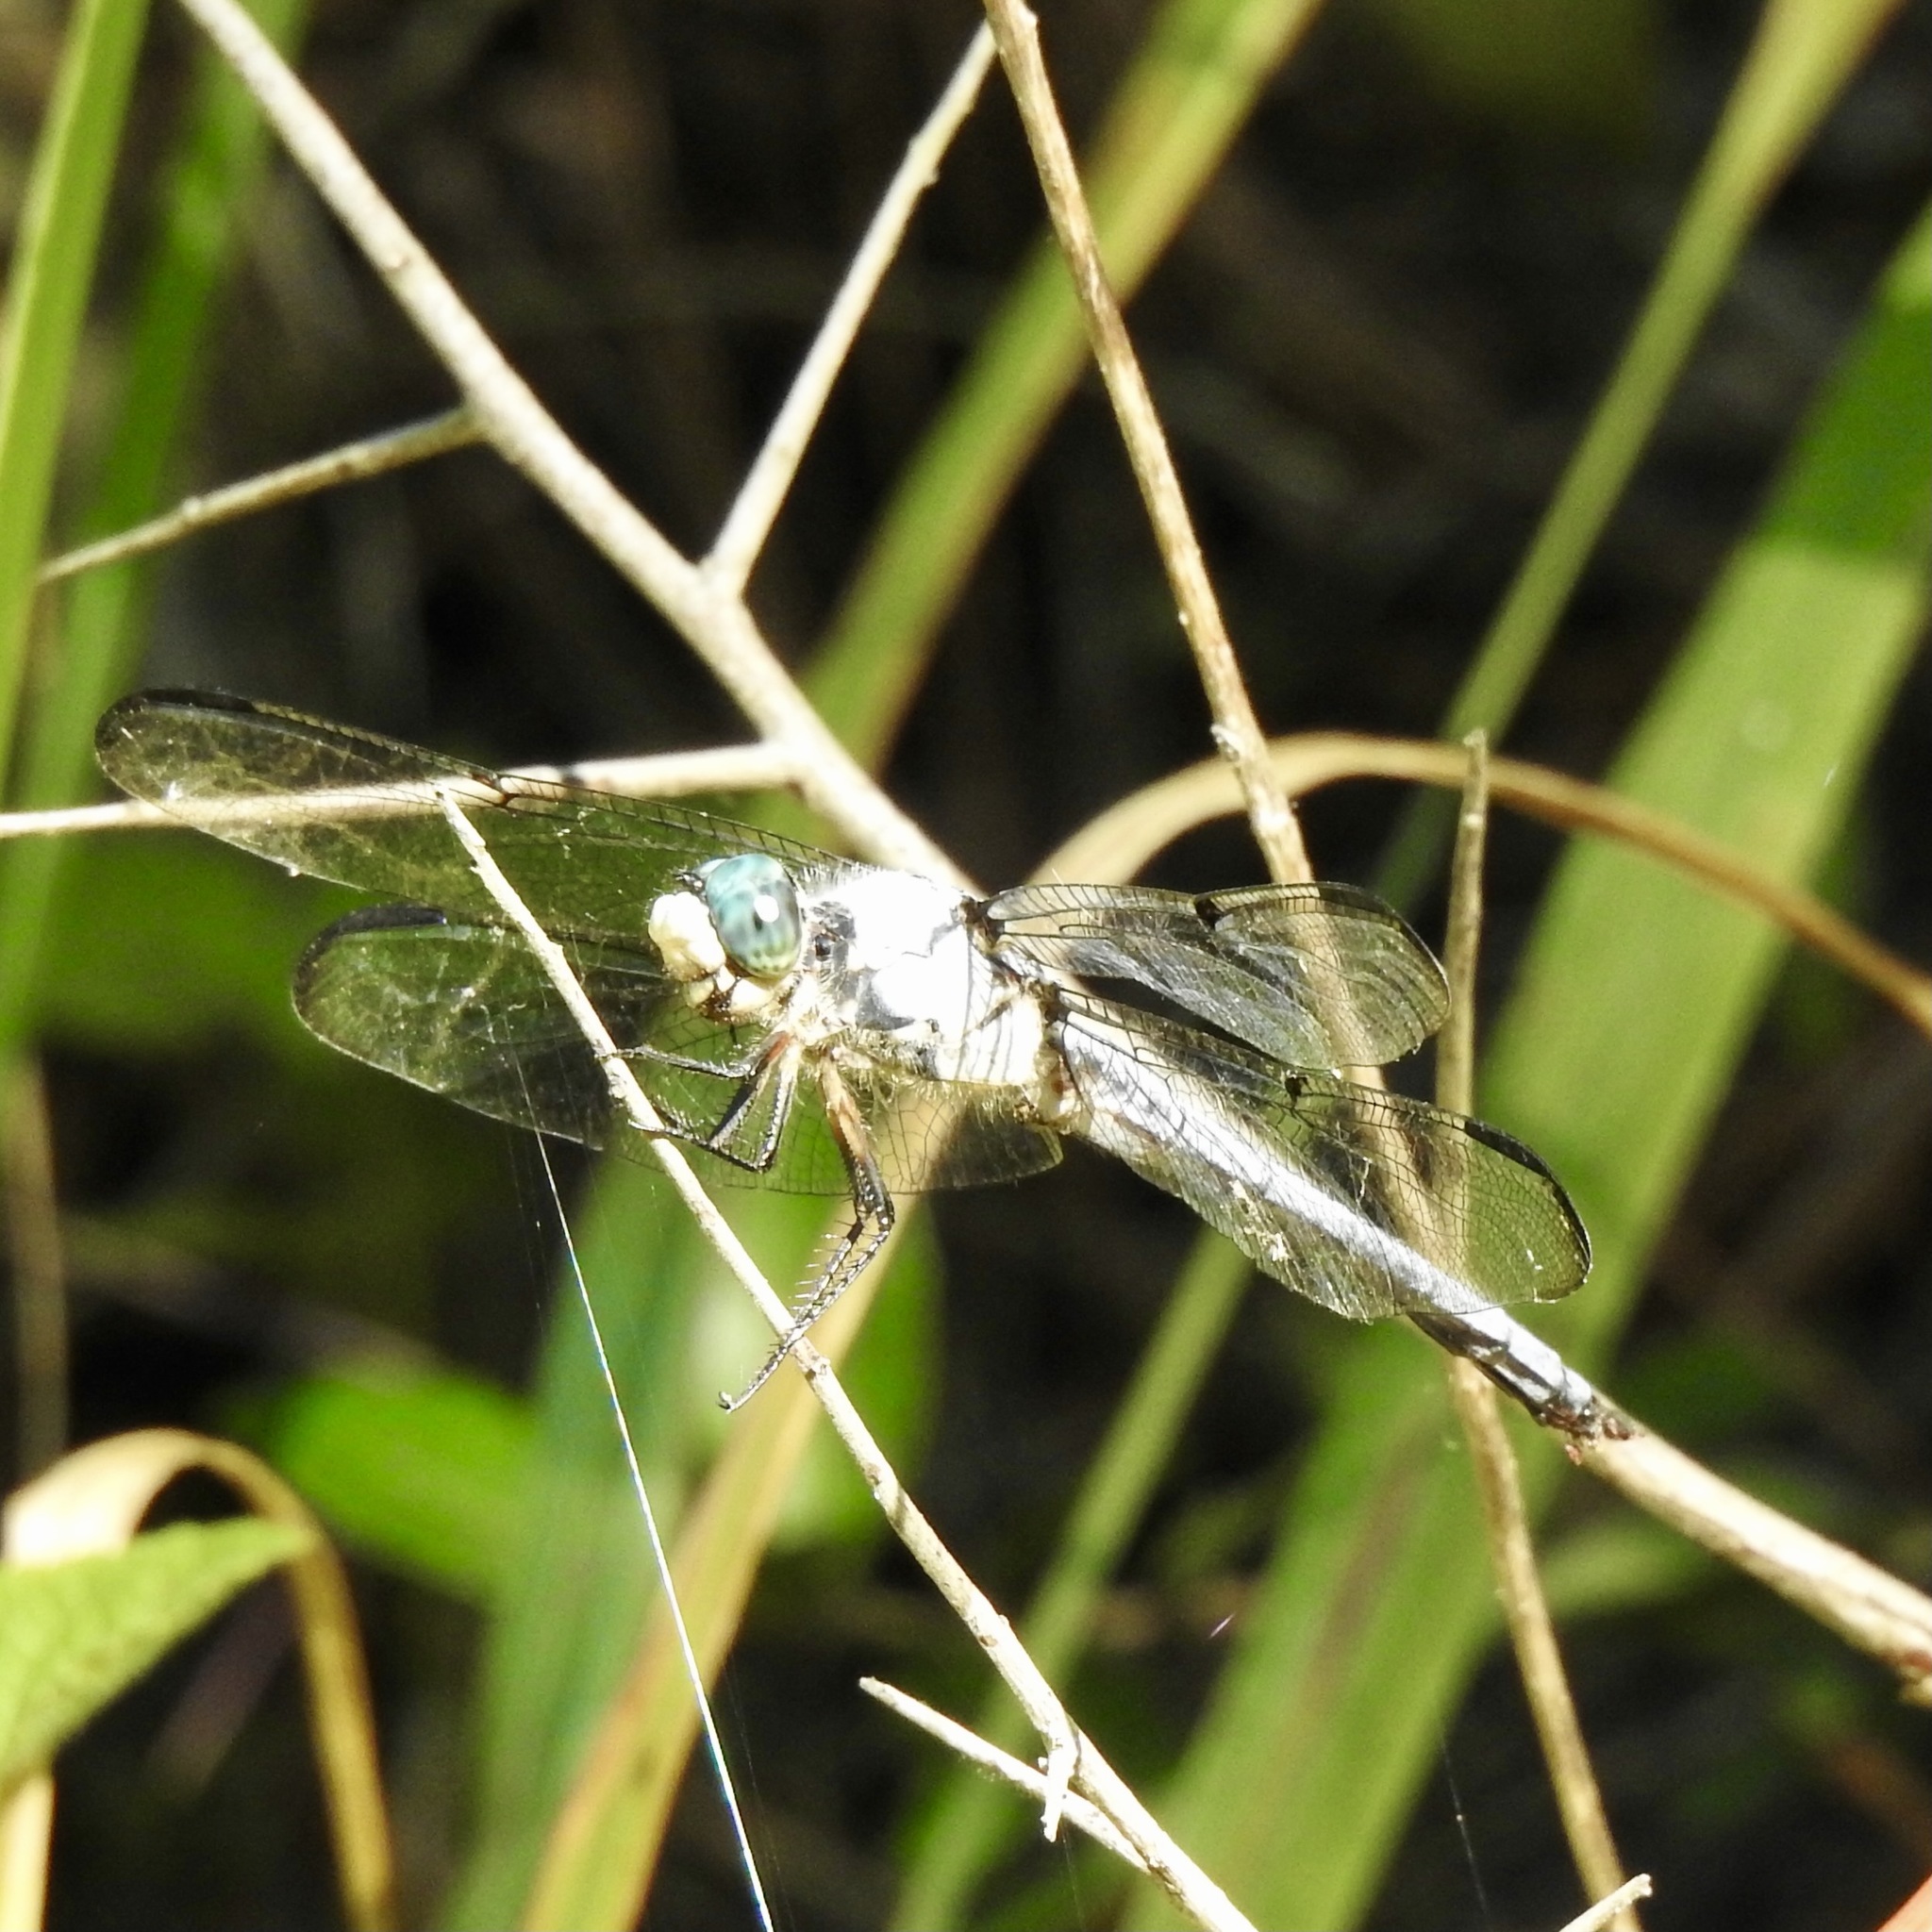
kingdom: Animalia
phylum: Arthropoda
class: Insecta
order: Odonata
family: Libellulidae
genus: Libellula
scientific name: Libellula vibrans
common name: Great blue skimmer
